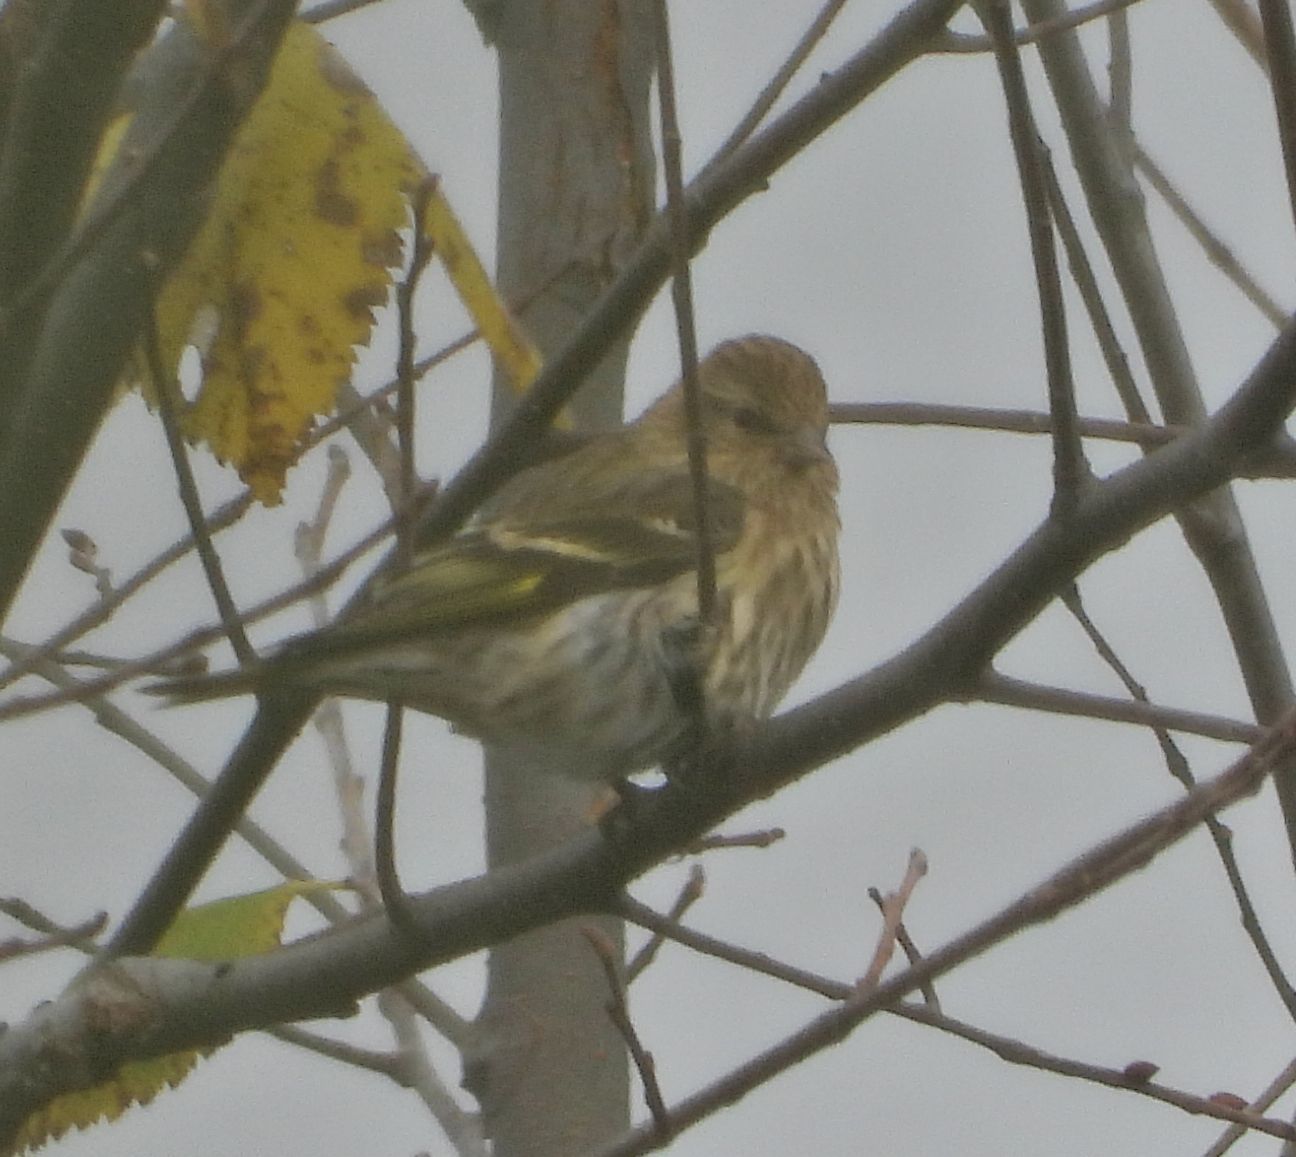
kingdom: Animalia
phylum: Chordata
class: Aves
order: Passeriformes
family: Fringillidae
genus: Spinus
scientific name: Spinus pinus
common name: Pine siskin
